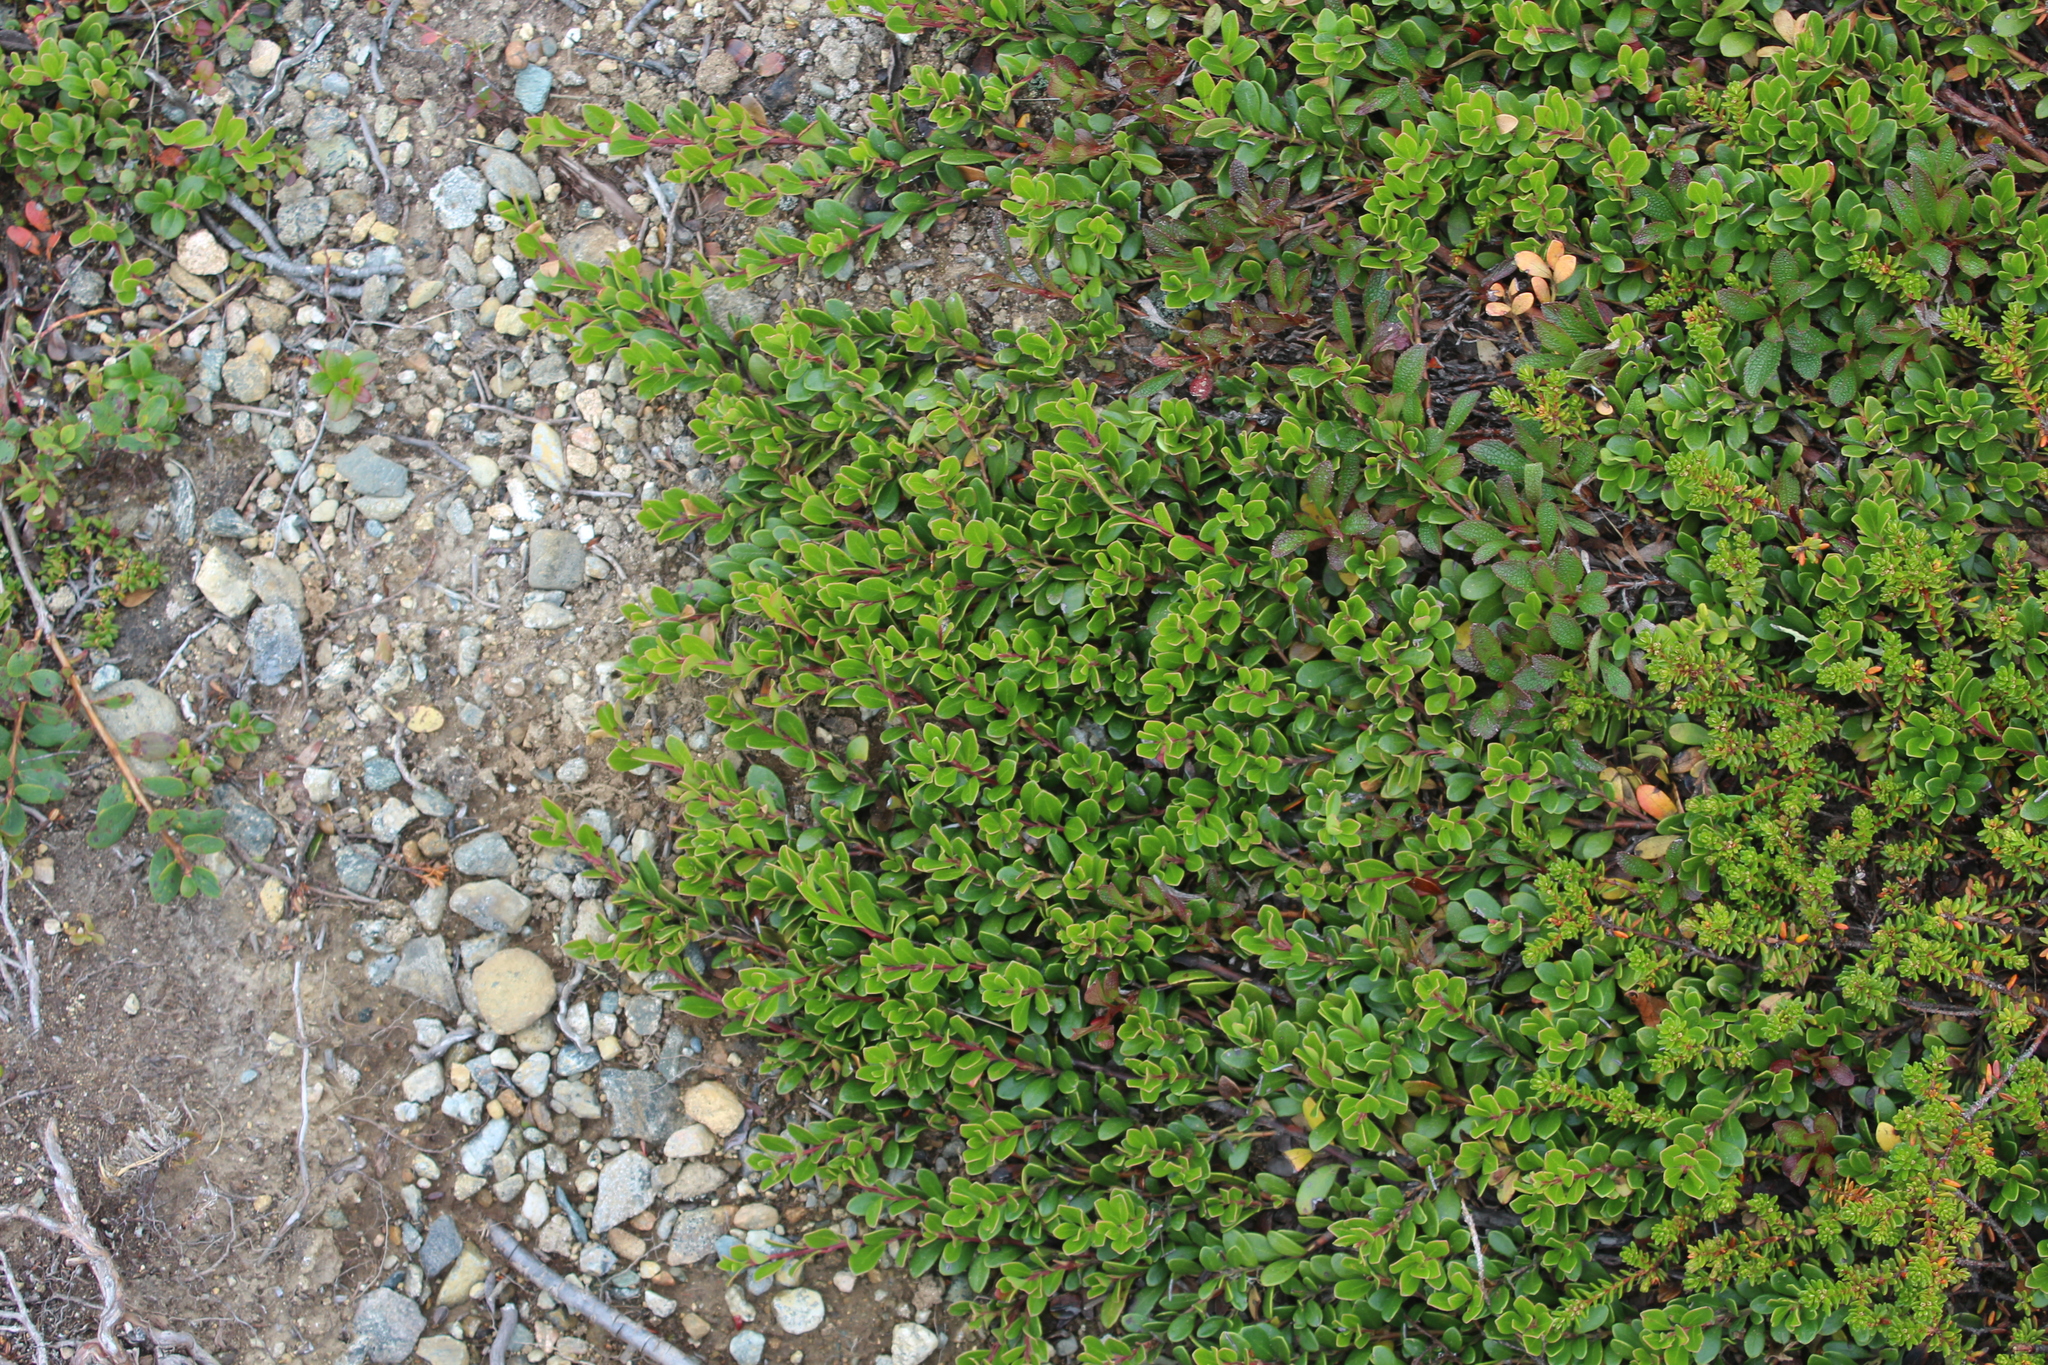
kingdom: Plantae
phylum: Tracheophyta
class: Magnoliopsida
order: Ericales
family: Ericaceae
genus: Arctostaphylos
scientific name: Arctostaphylos uva-ursi
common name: Bearberry
